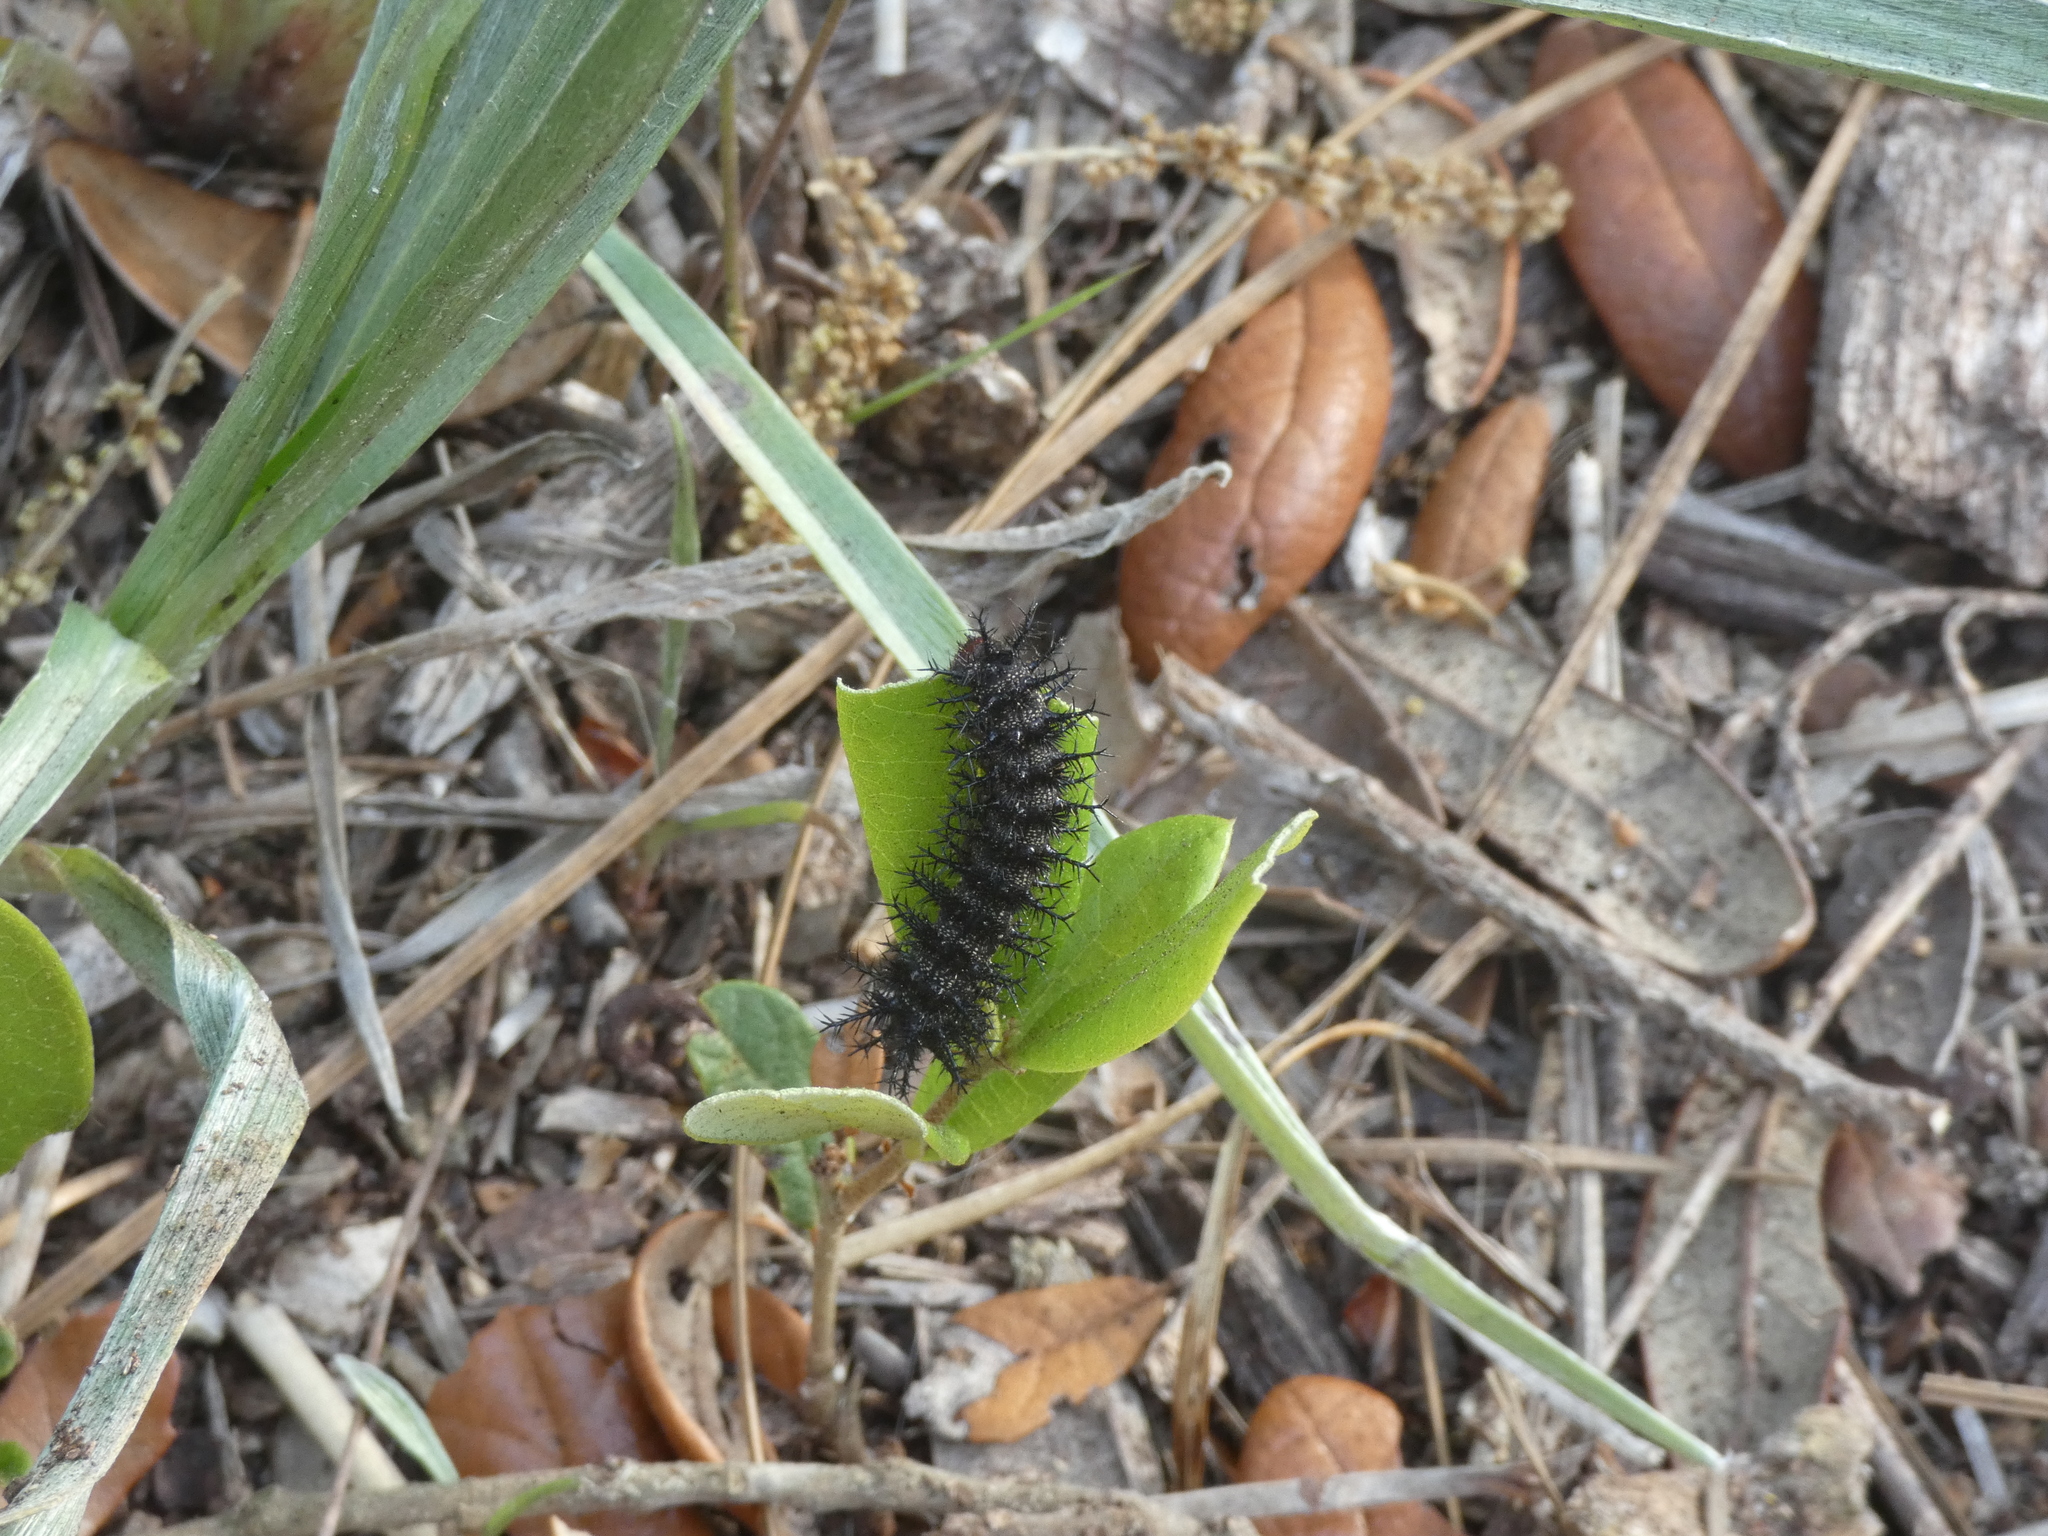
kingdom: Animalia
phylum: Arthropoda
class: Insecta
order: Lepidoptera
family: Saturniidae
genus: Hemileuca
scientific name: Hemileuca maia
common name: Eastern buckmoth
